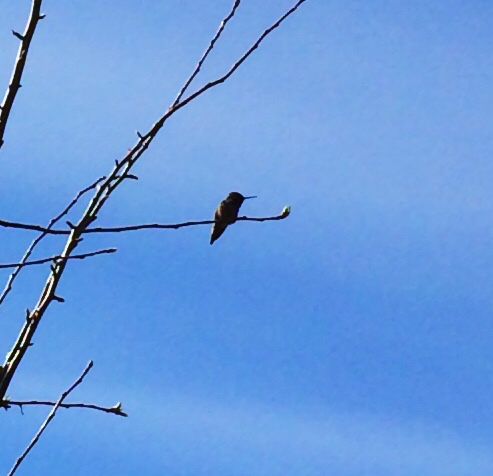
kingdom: Animalia
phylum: Chordata
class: Aves
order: Apodiformes
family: Trochilidae
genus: Calypte
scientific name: Calypte anna
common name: Anna's hummingbird
